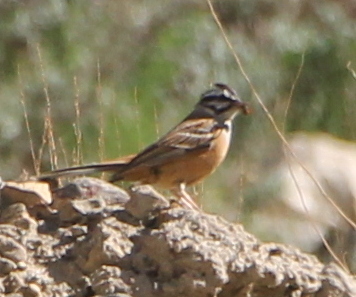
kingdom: Animalia
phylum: Chordata
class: Aves
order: Passeriformes
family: Emberizidae
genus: Emberiza
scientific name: Emberiza cia
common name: Rock bunting
